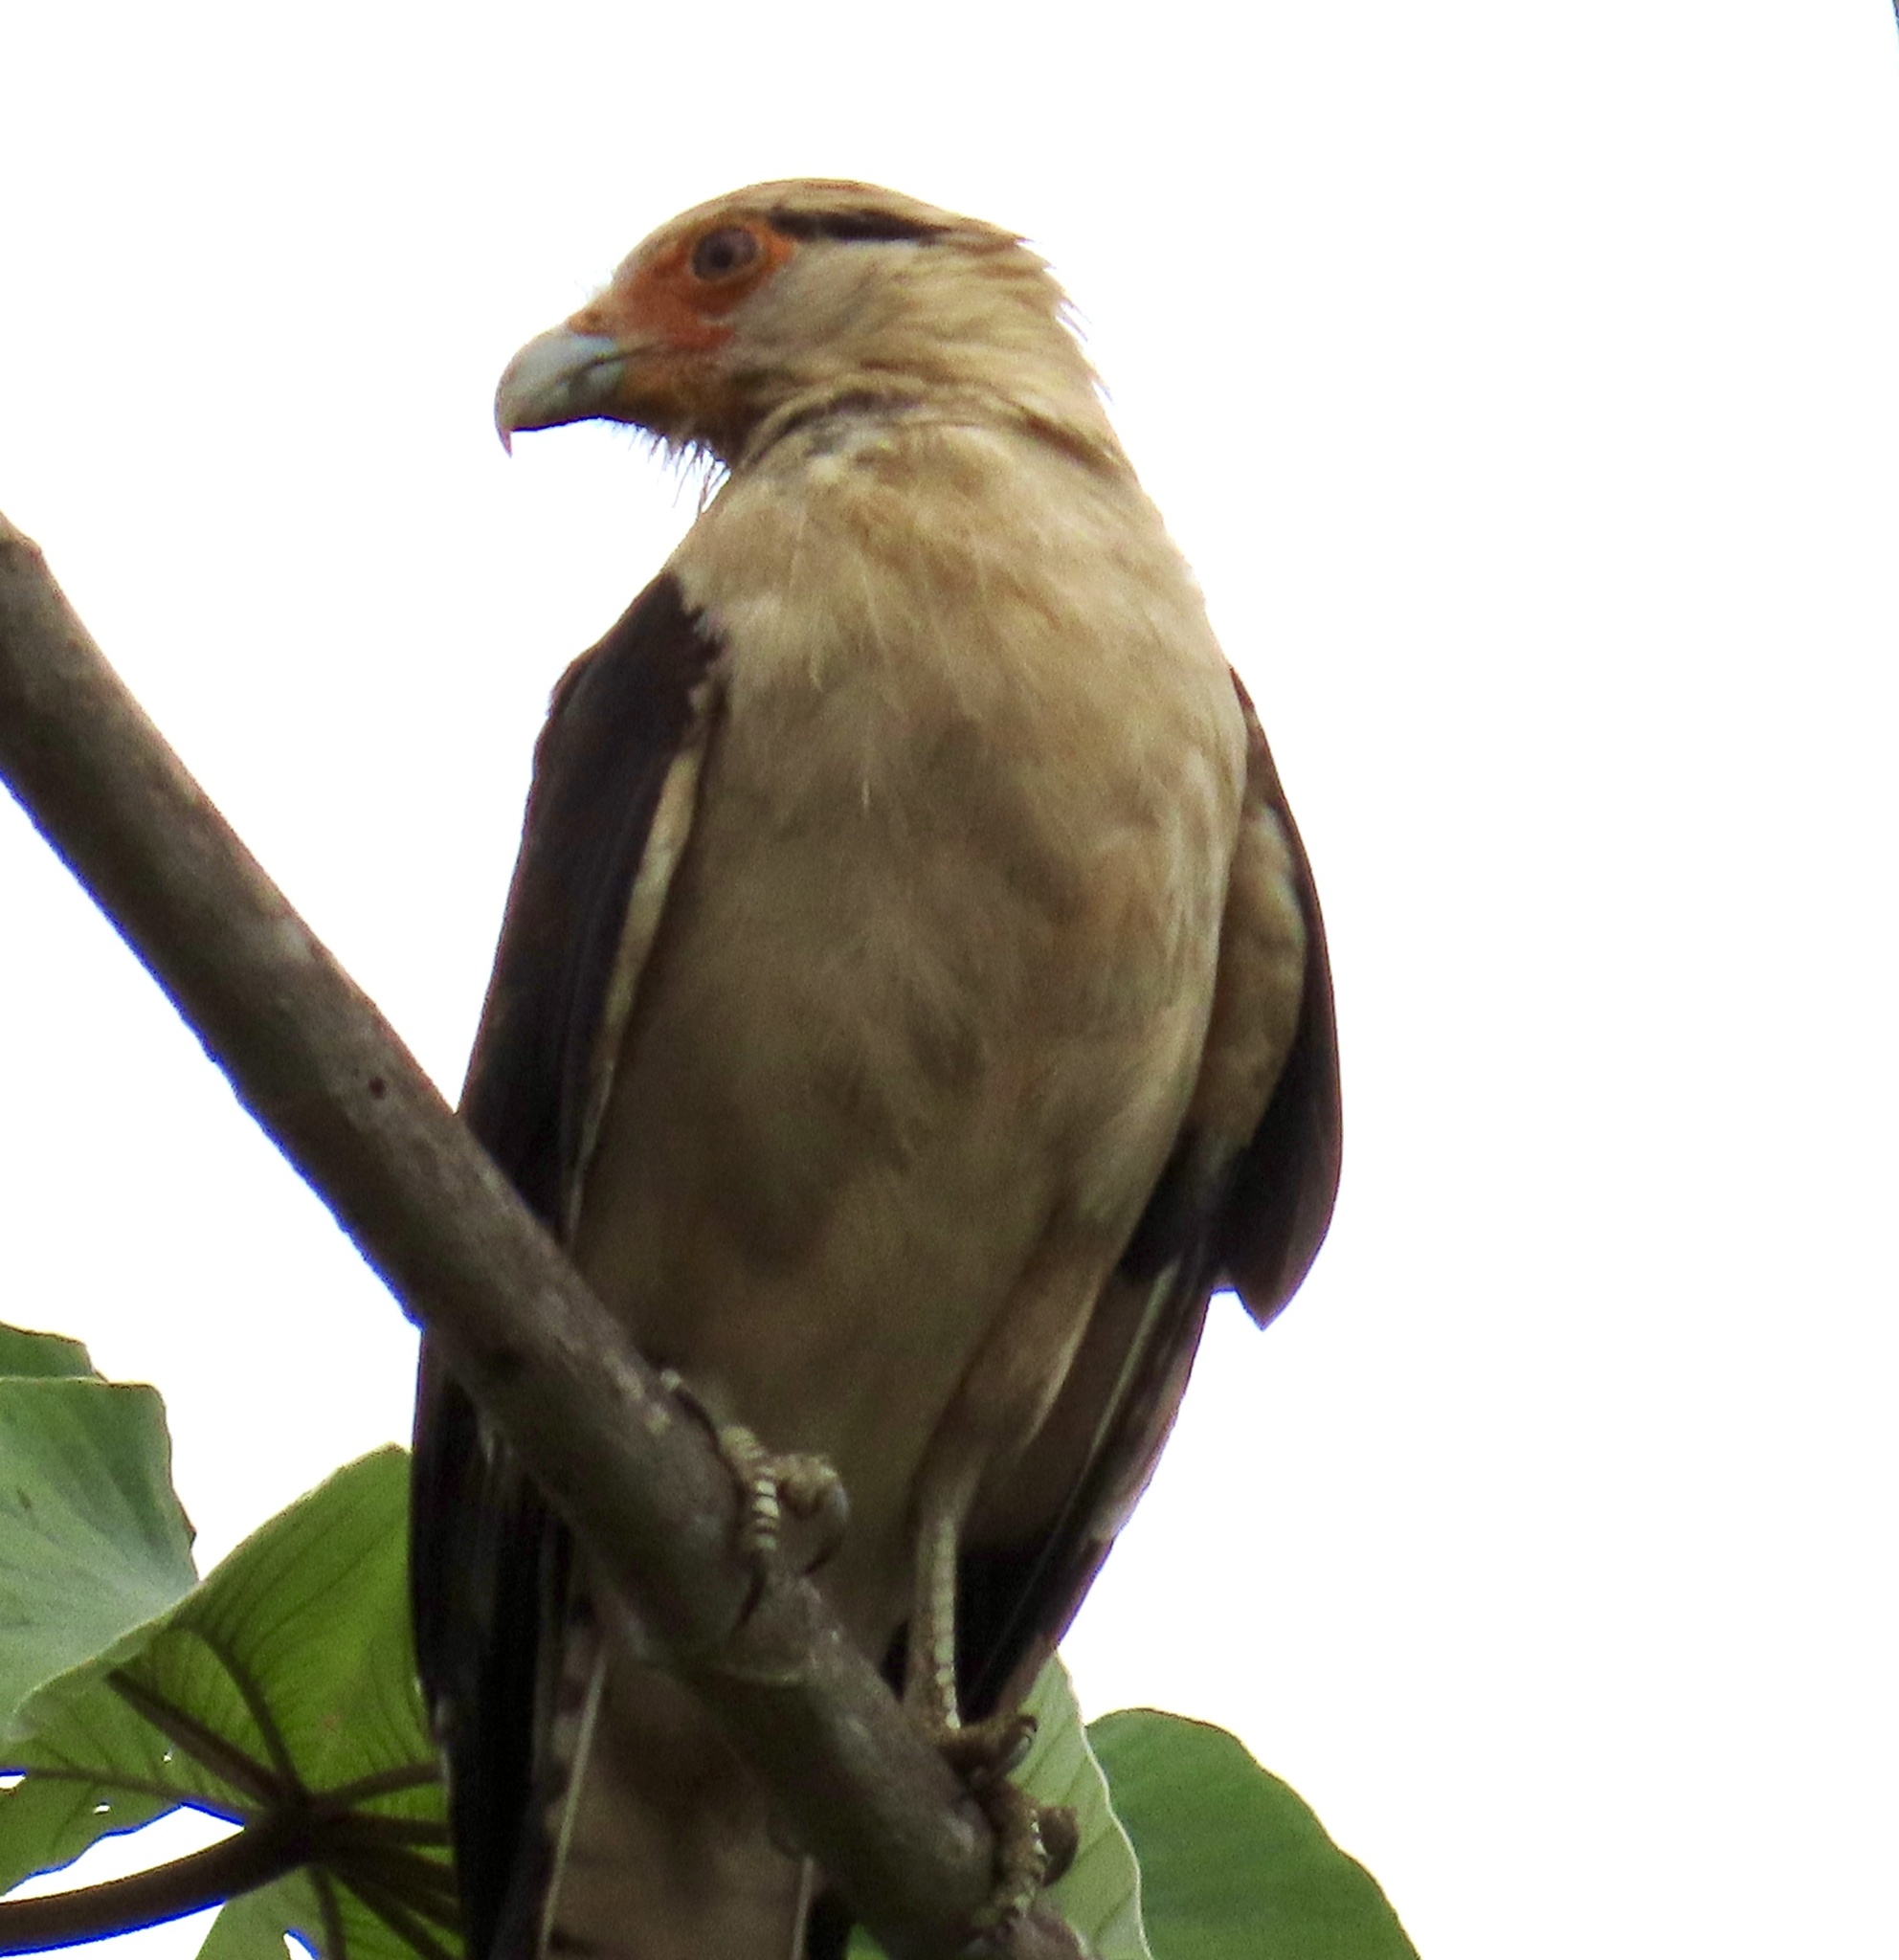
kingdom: Animalia
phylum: Chordata
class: Aves
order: Falconiformes
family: Falconidae
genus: Daptrius
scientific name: Daptrius
